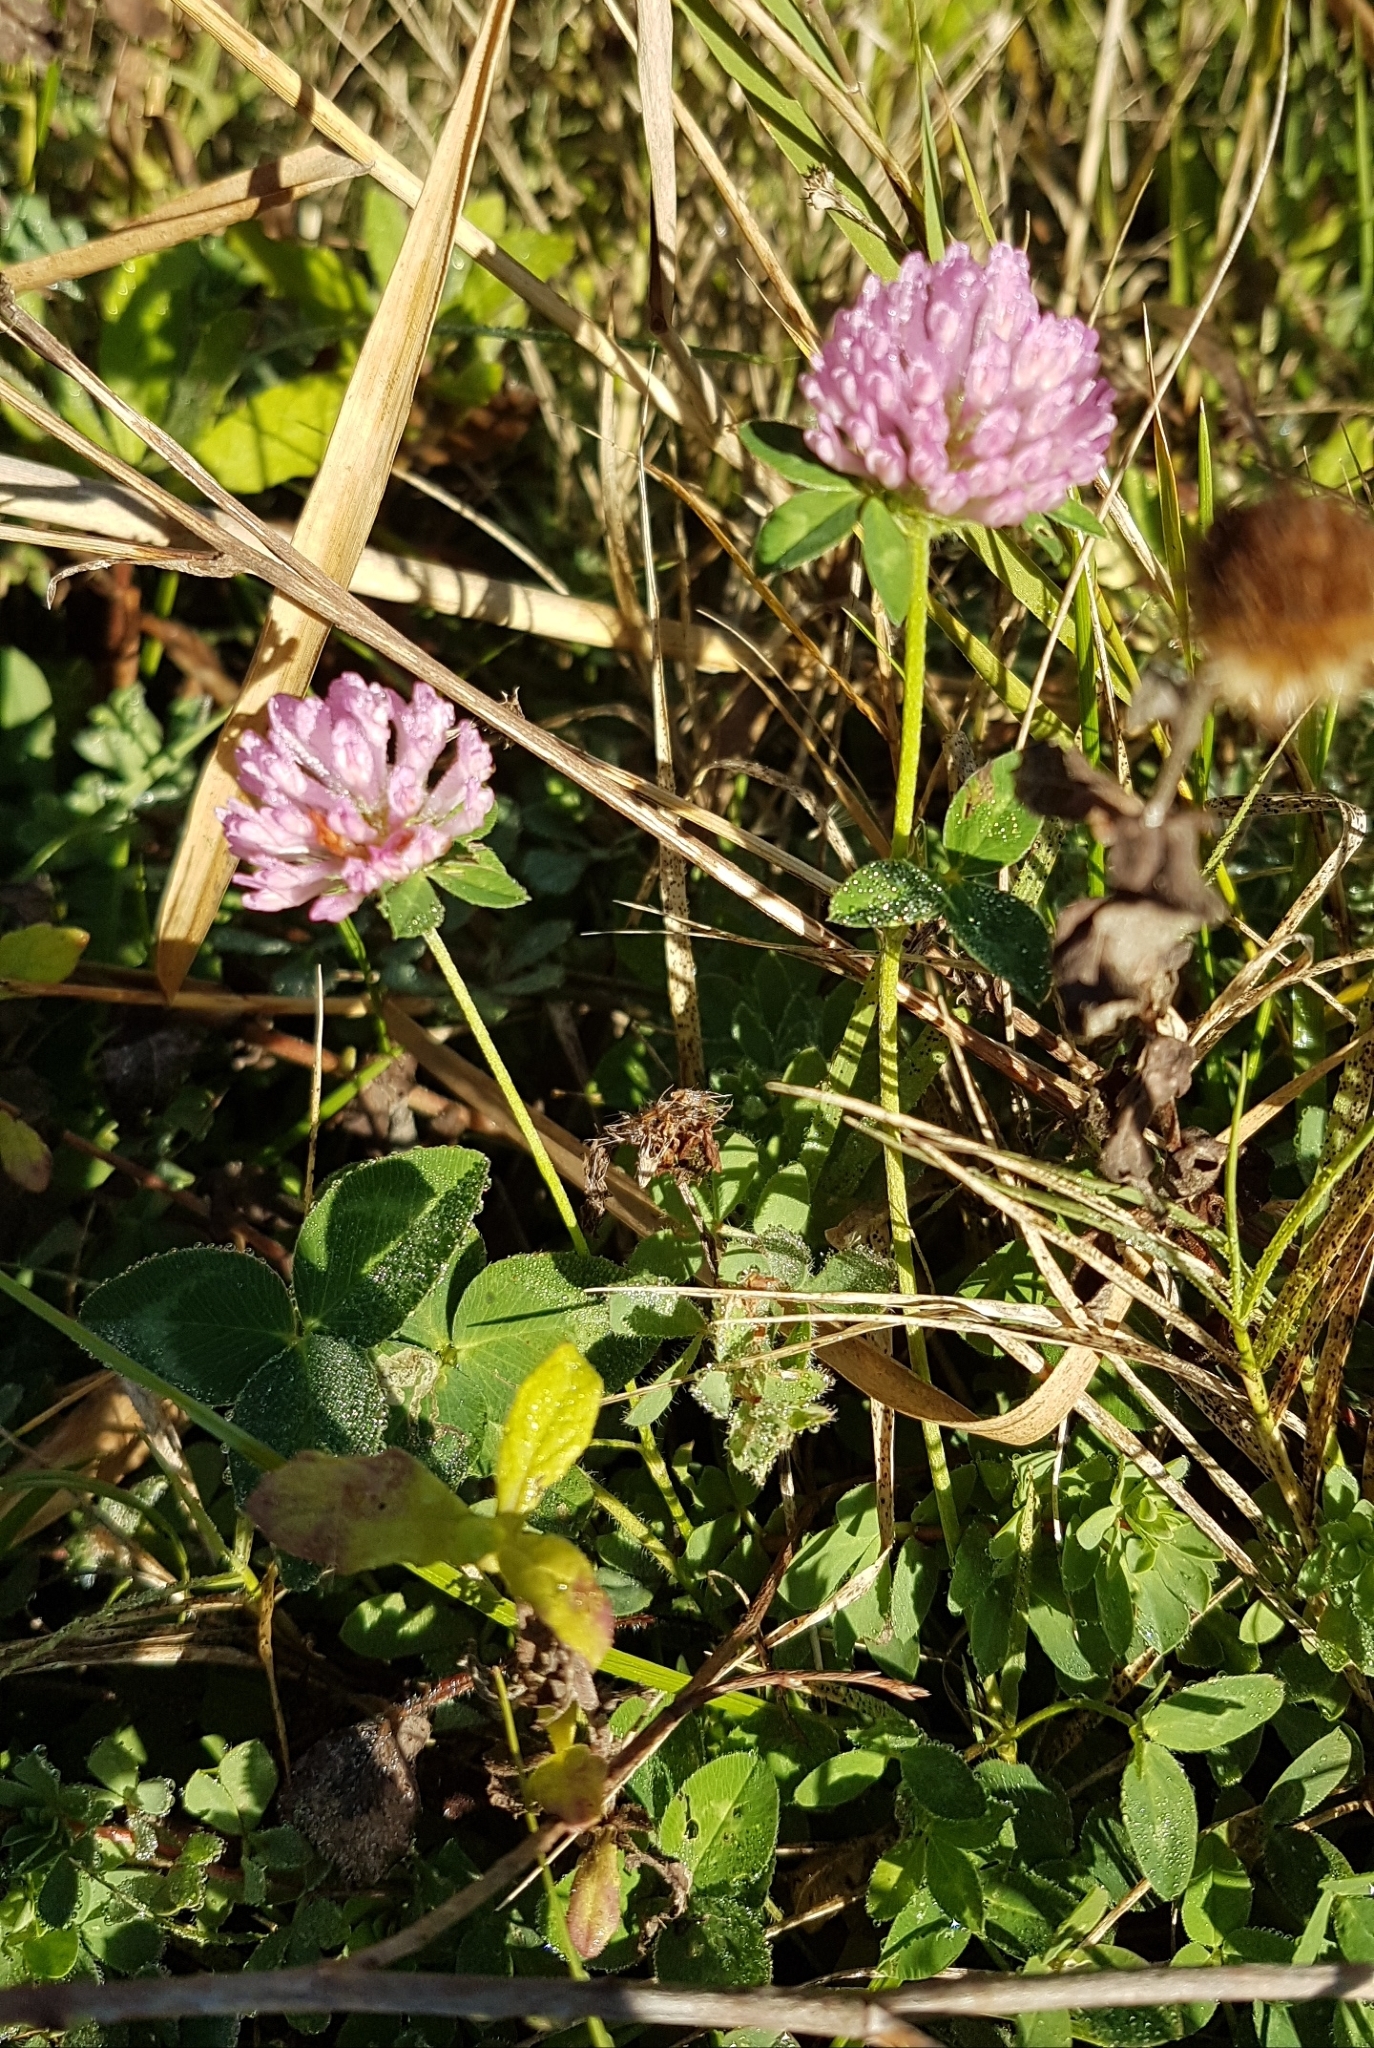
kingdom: Plantae
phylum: Tracheophyta
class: Magnoliopsida
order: Fabales
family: Fabaceae
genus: Trifolium
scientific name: Trifolium pratense
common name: Red clover
